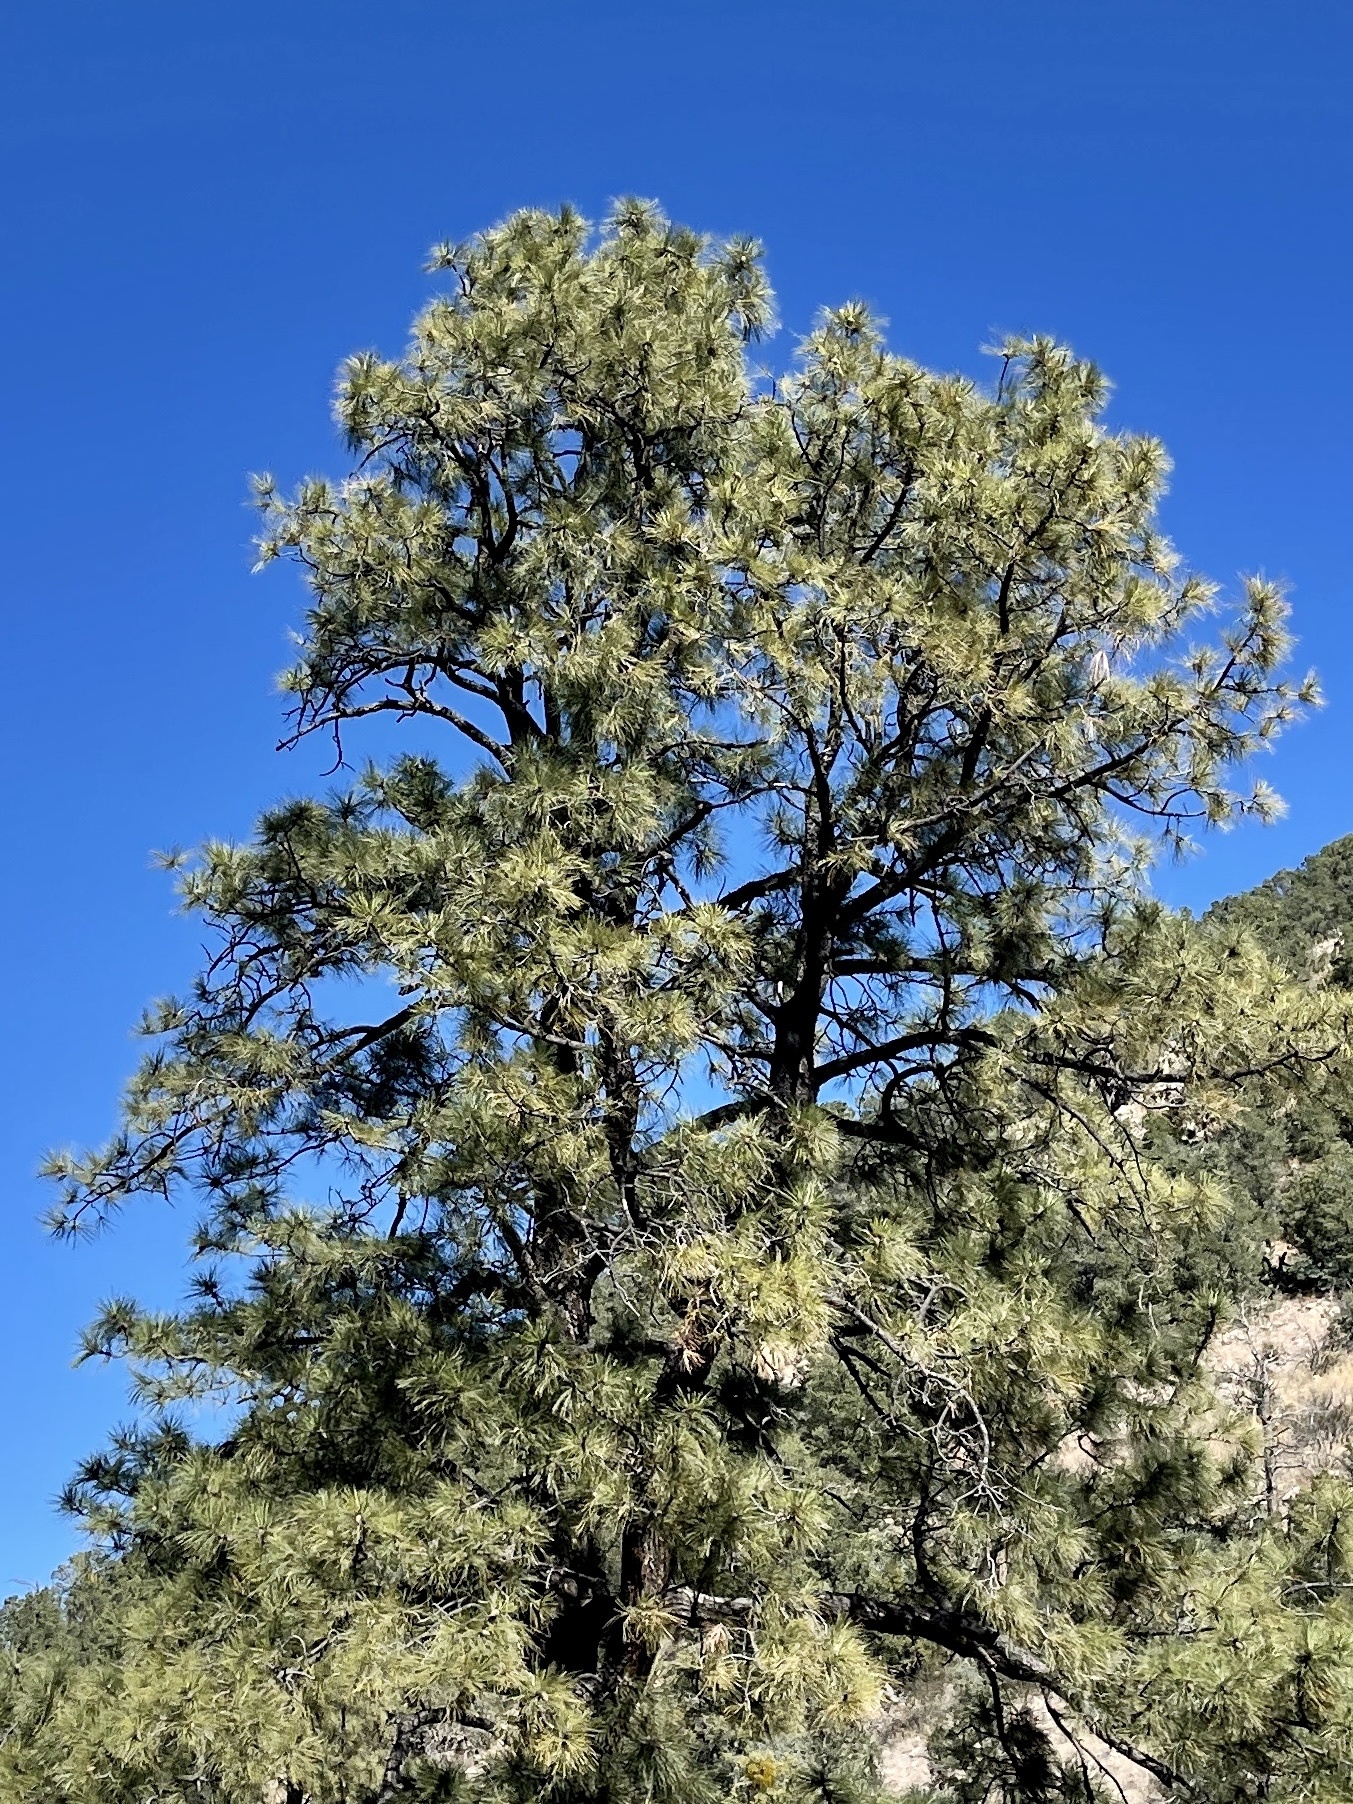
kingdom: Plantae
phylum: Tracheophyta
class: Pinopsida
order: Pinales
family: Pinaceae
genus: Pinus
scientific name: Pinus ponderosa
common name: Western yellow-pine
